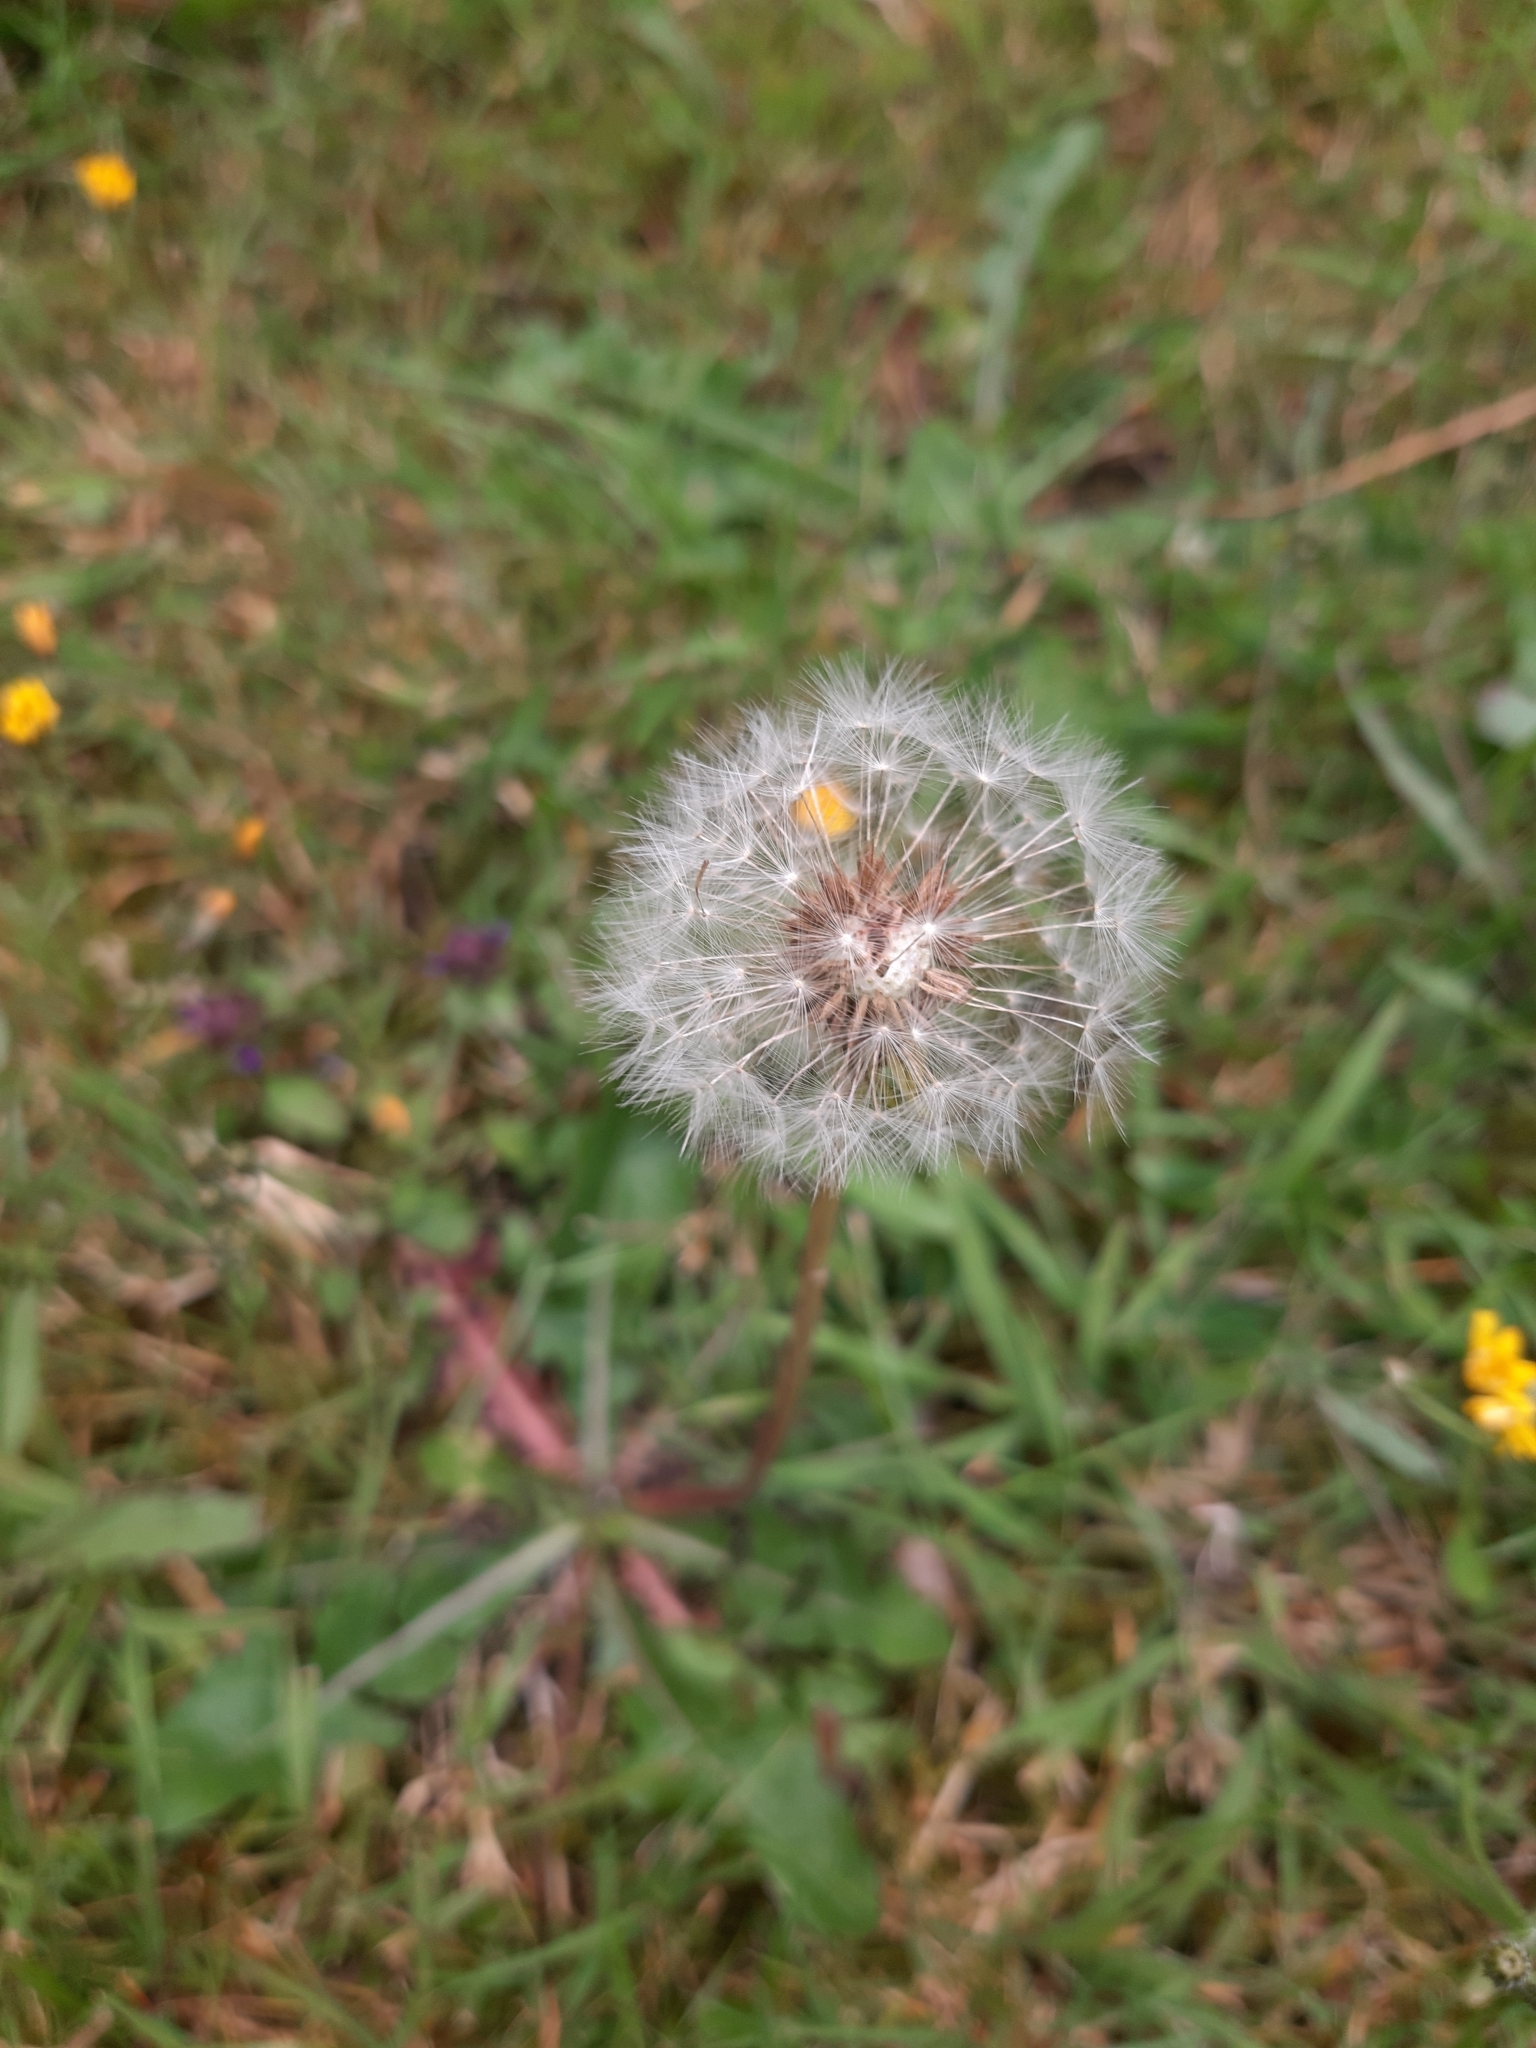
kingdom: Plantae
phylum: Tracheophyta
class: Magnoliopsida
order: Asterales
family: Asteraceae
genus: Taraxacum
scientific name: Taraxacum officinale
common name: Common dandelion
